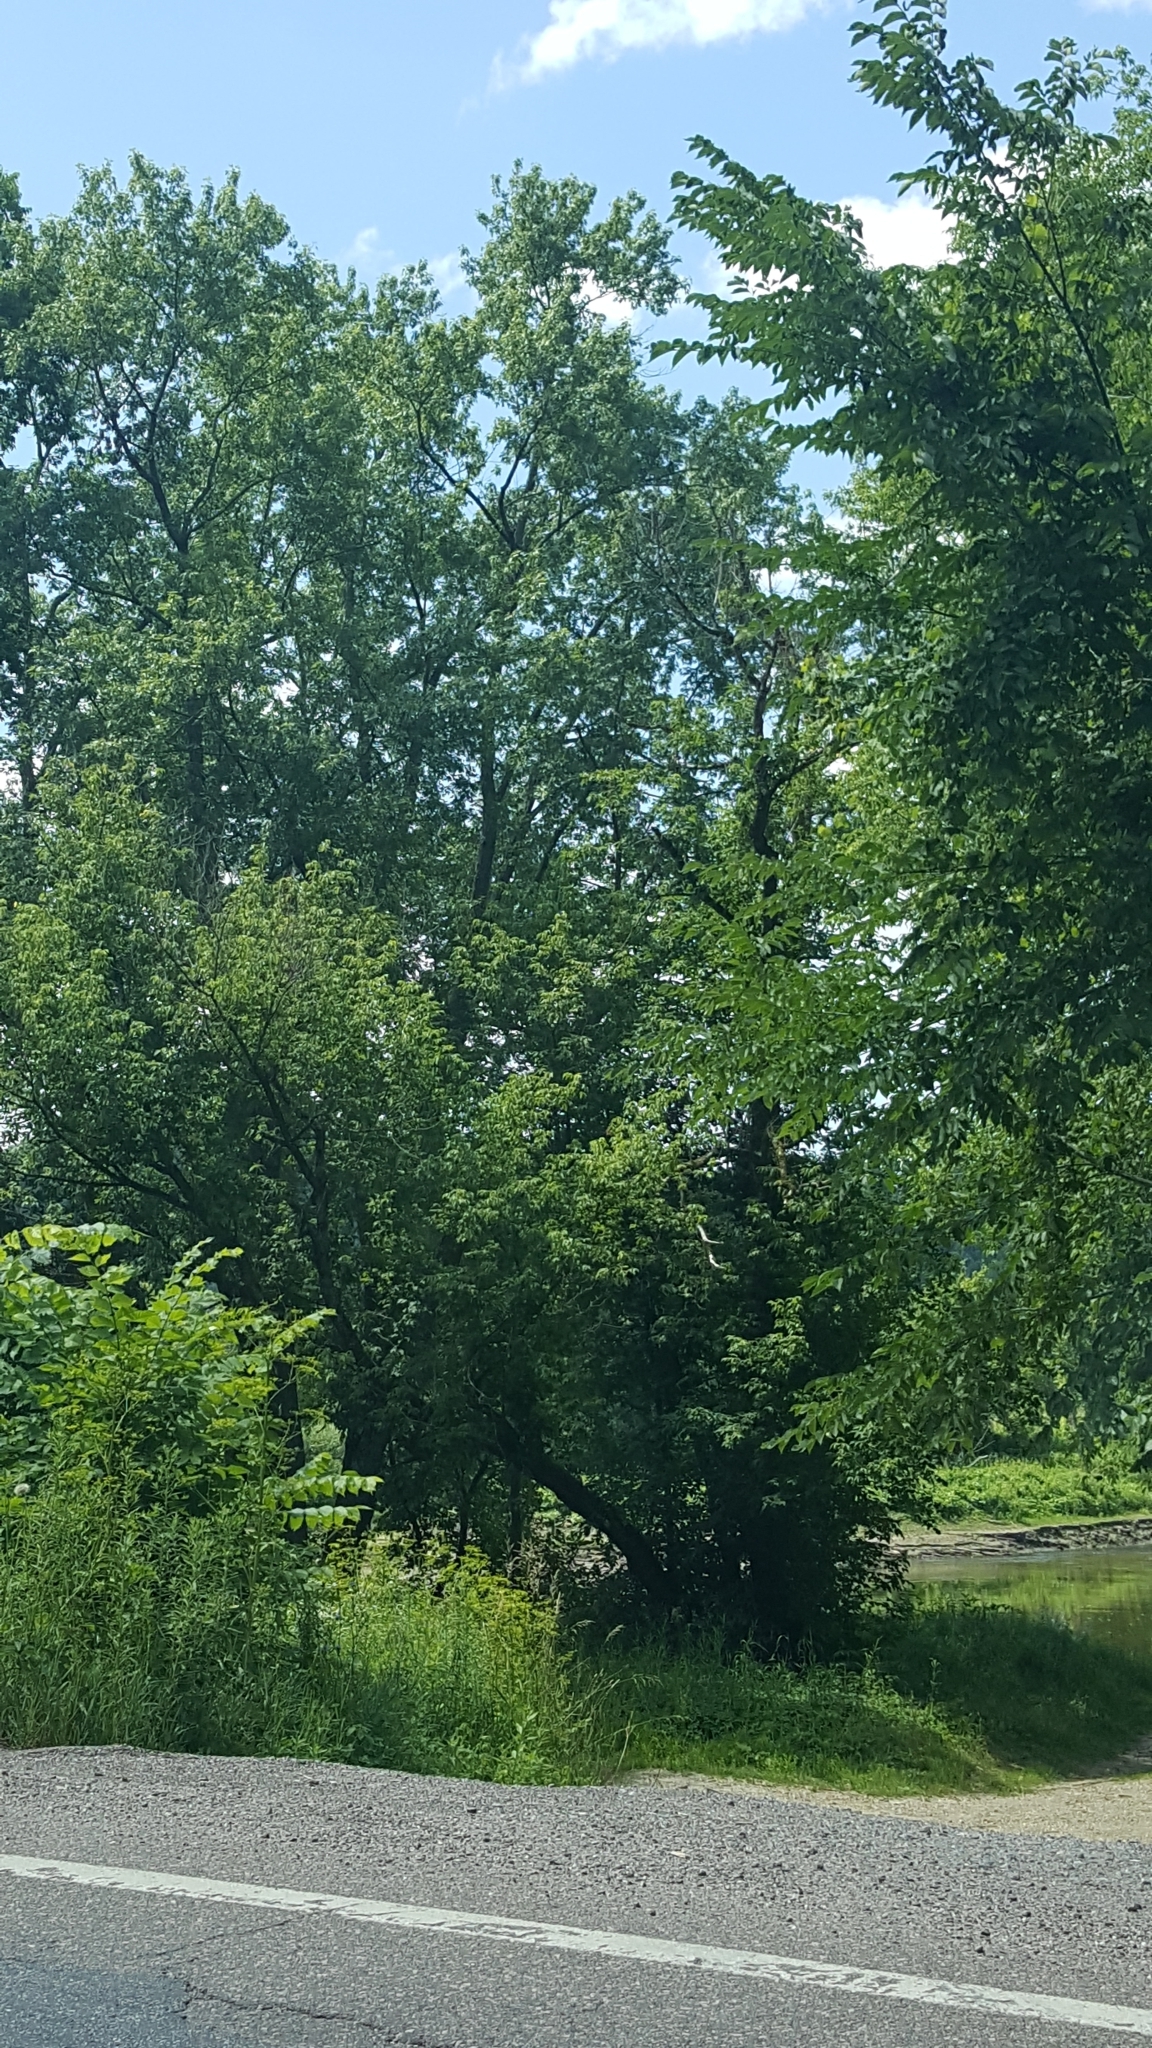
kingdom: Plantae
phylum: Tracheophyta
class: Magnoliopsida
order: Sapindales
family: Sapindaceae
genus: Acer
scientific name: Acer saccharinum
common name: Silver maple
